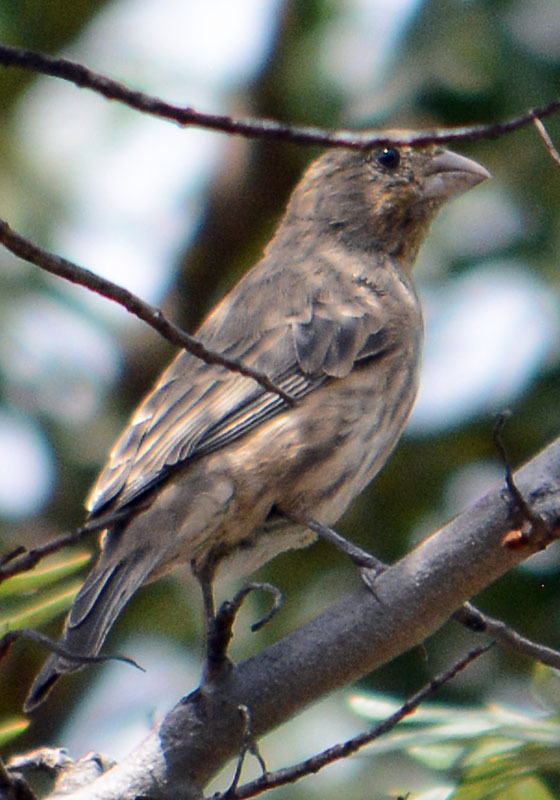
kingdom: Animalia
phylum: Chordata
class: Aves
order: Passeriformes
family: Fringillidae
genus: Haemorhous
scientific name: Haemorhous mexicanus
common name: House finch
